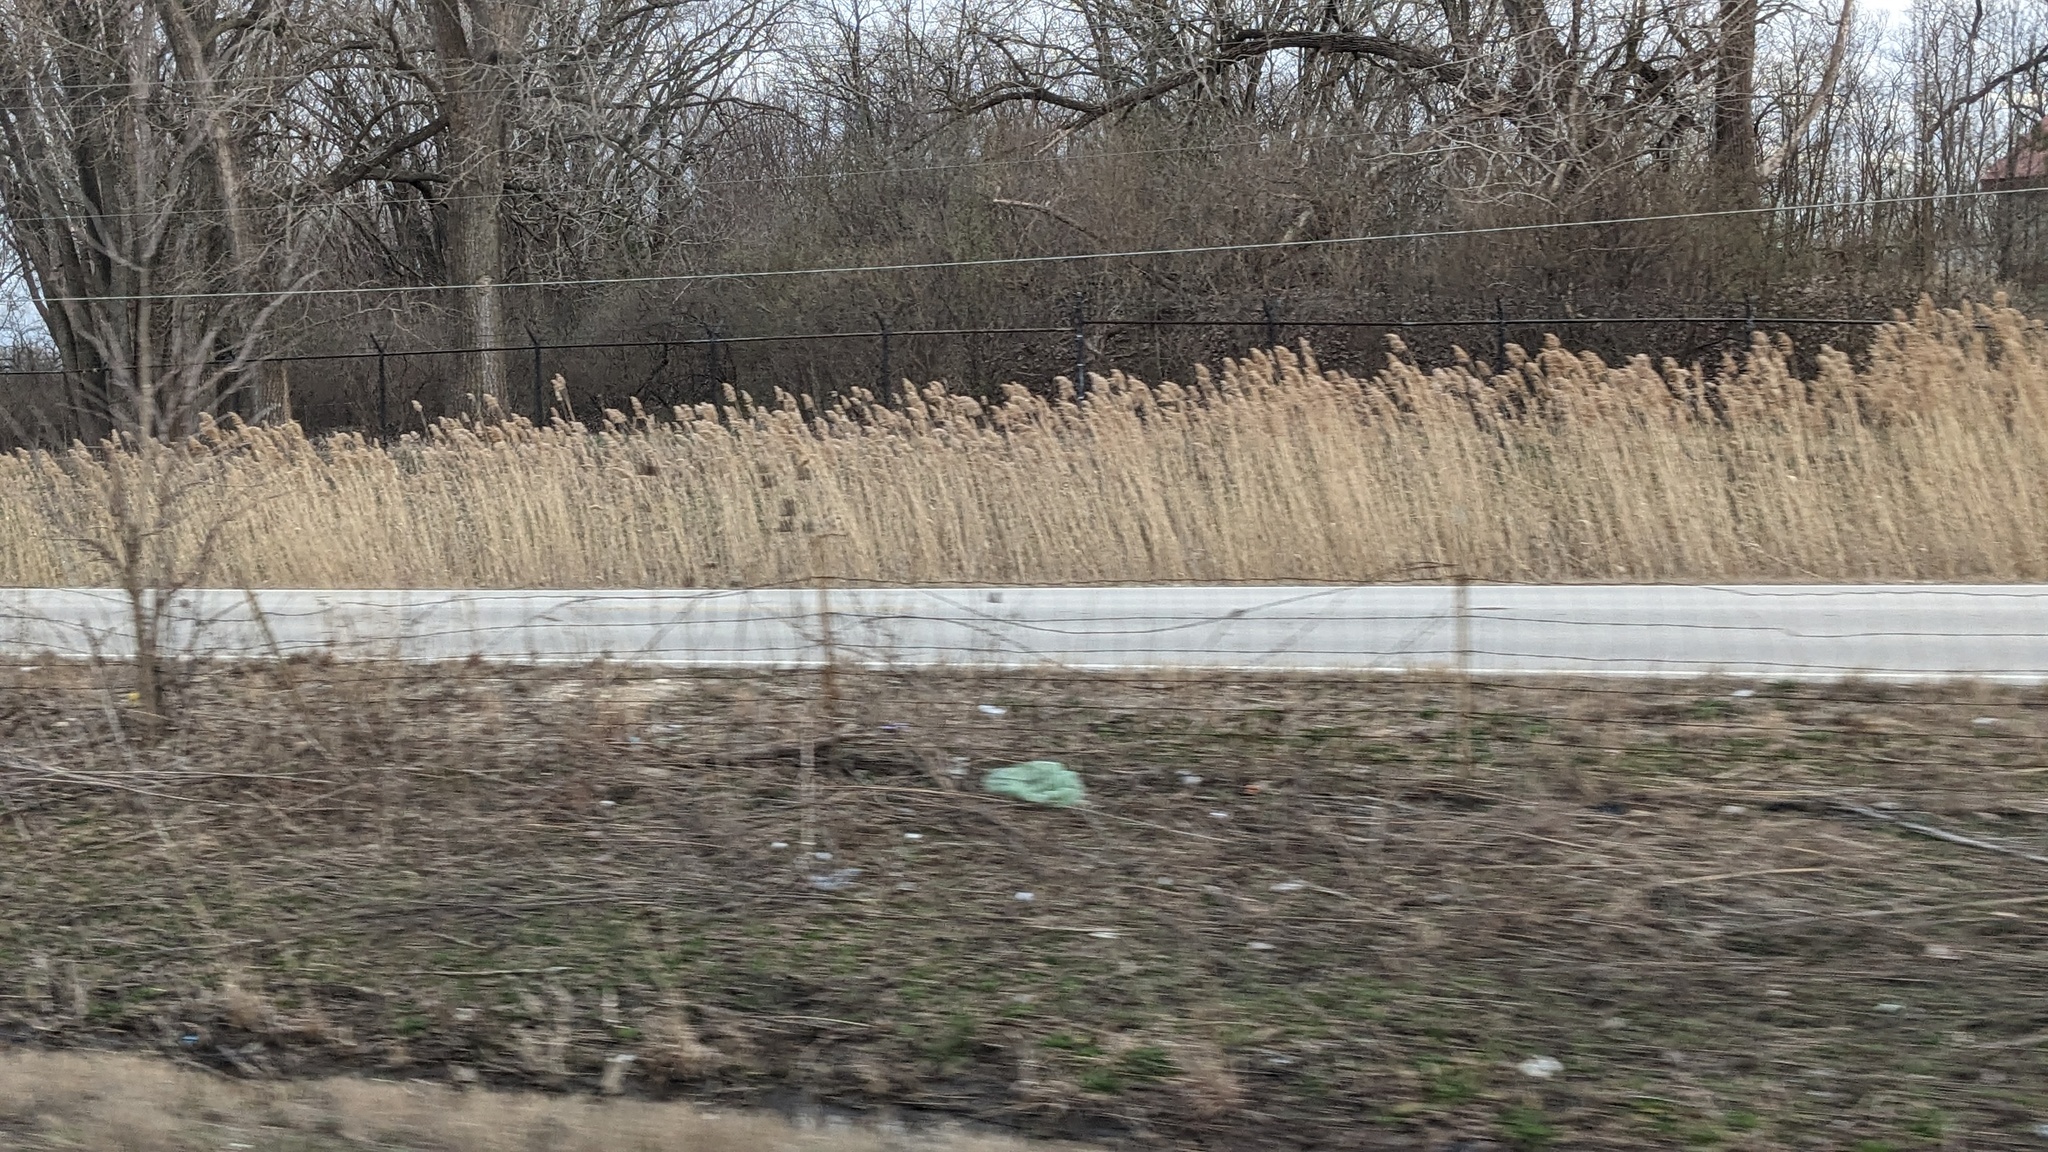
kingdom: Plantae
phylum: Tracheophyta
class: Liliopsida
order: Poales
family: Poaceae
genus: Phragmites
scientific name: Phragmites australis
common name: Common reed
